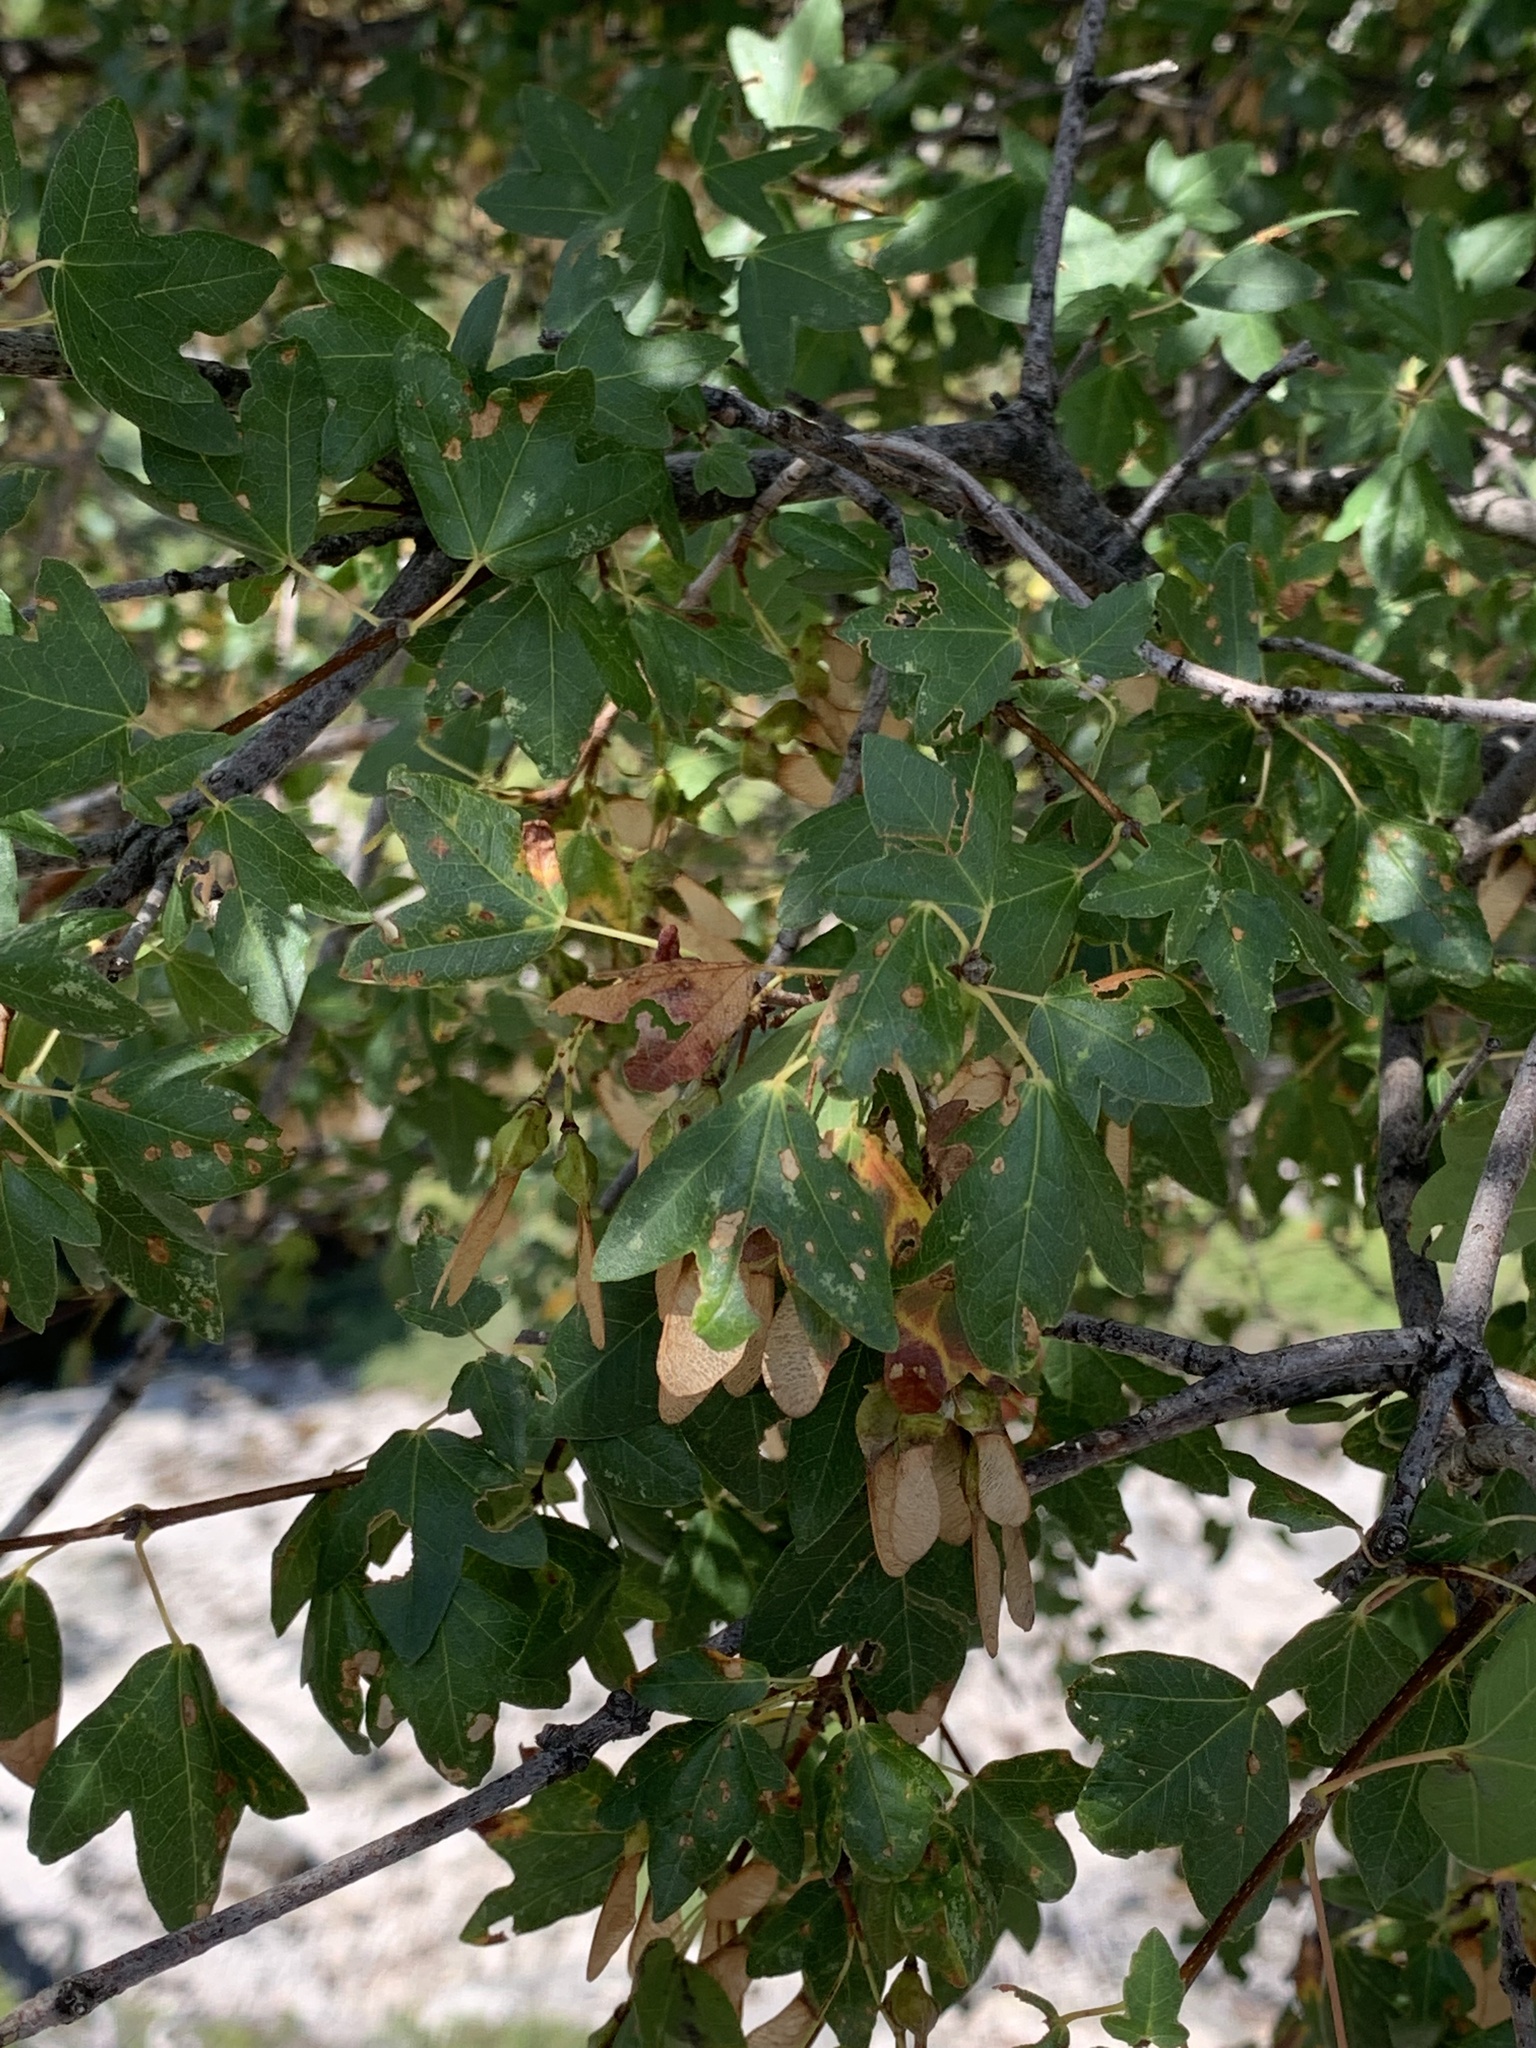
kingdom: Plantae
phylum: Tracheophyta
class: Magnoliopsida
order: Sapindales
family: Sapindaceae
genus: Acer
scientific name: Acer sempervirens
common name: Cretan maple
